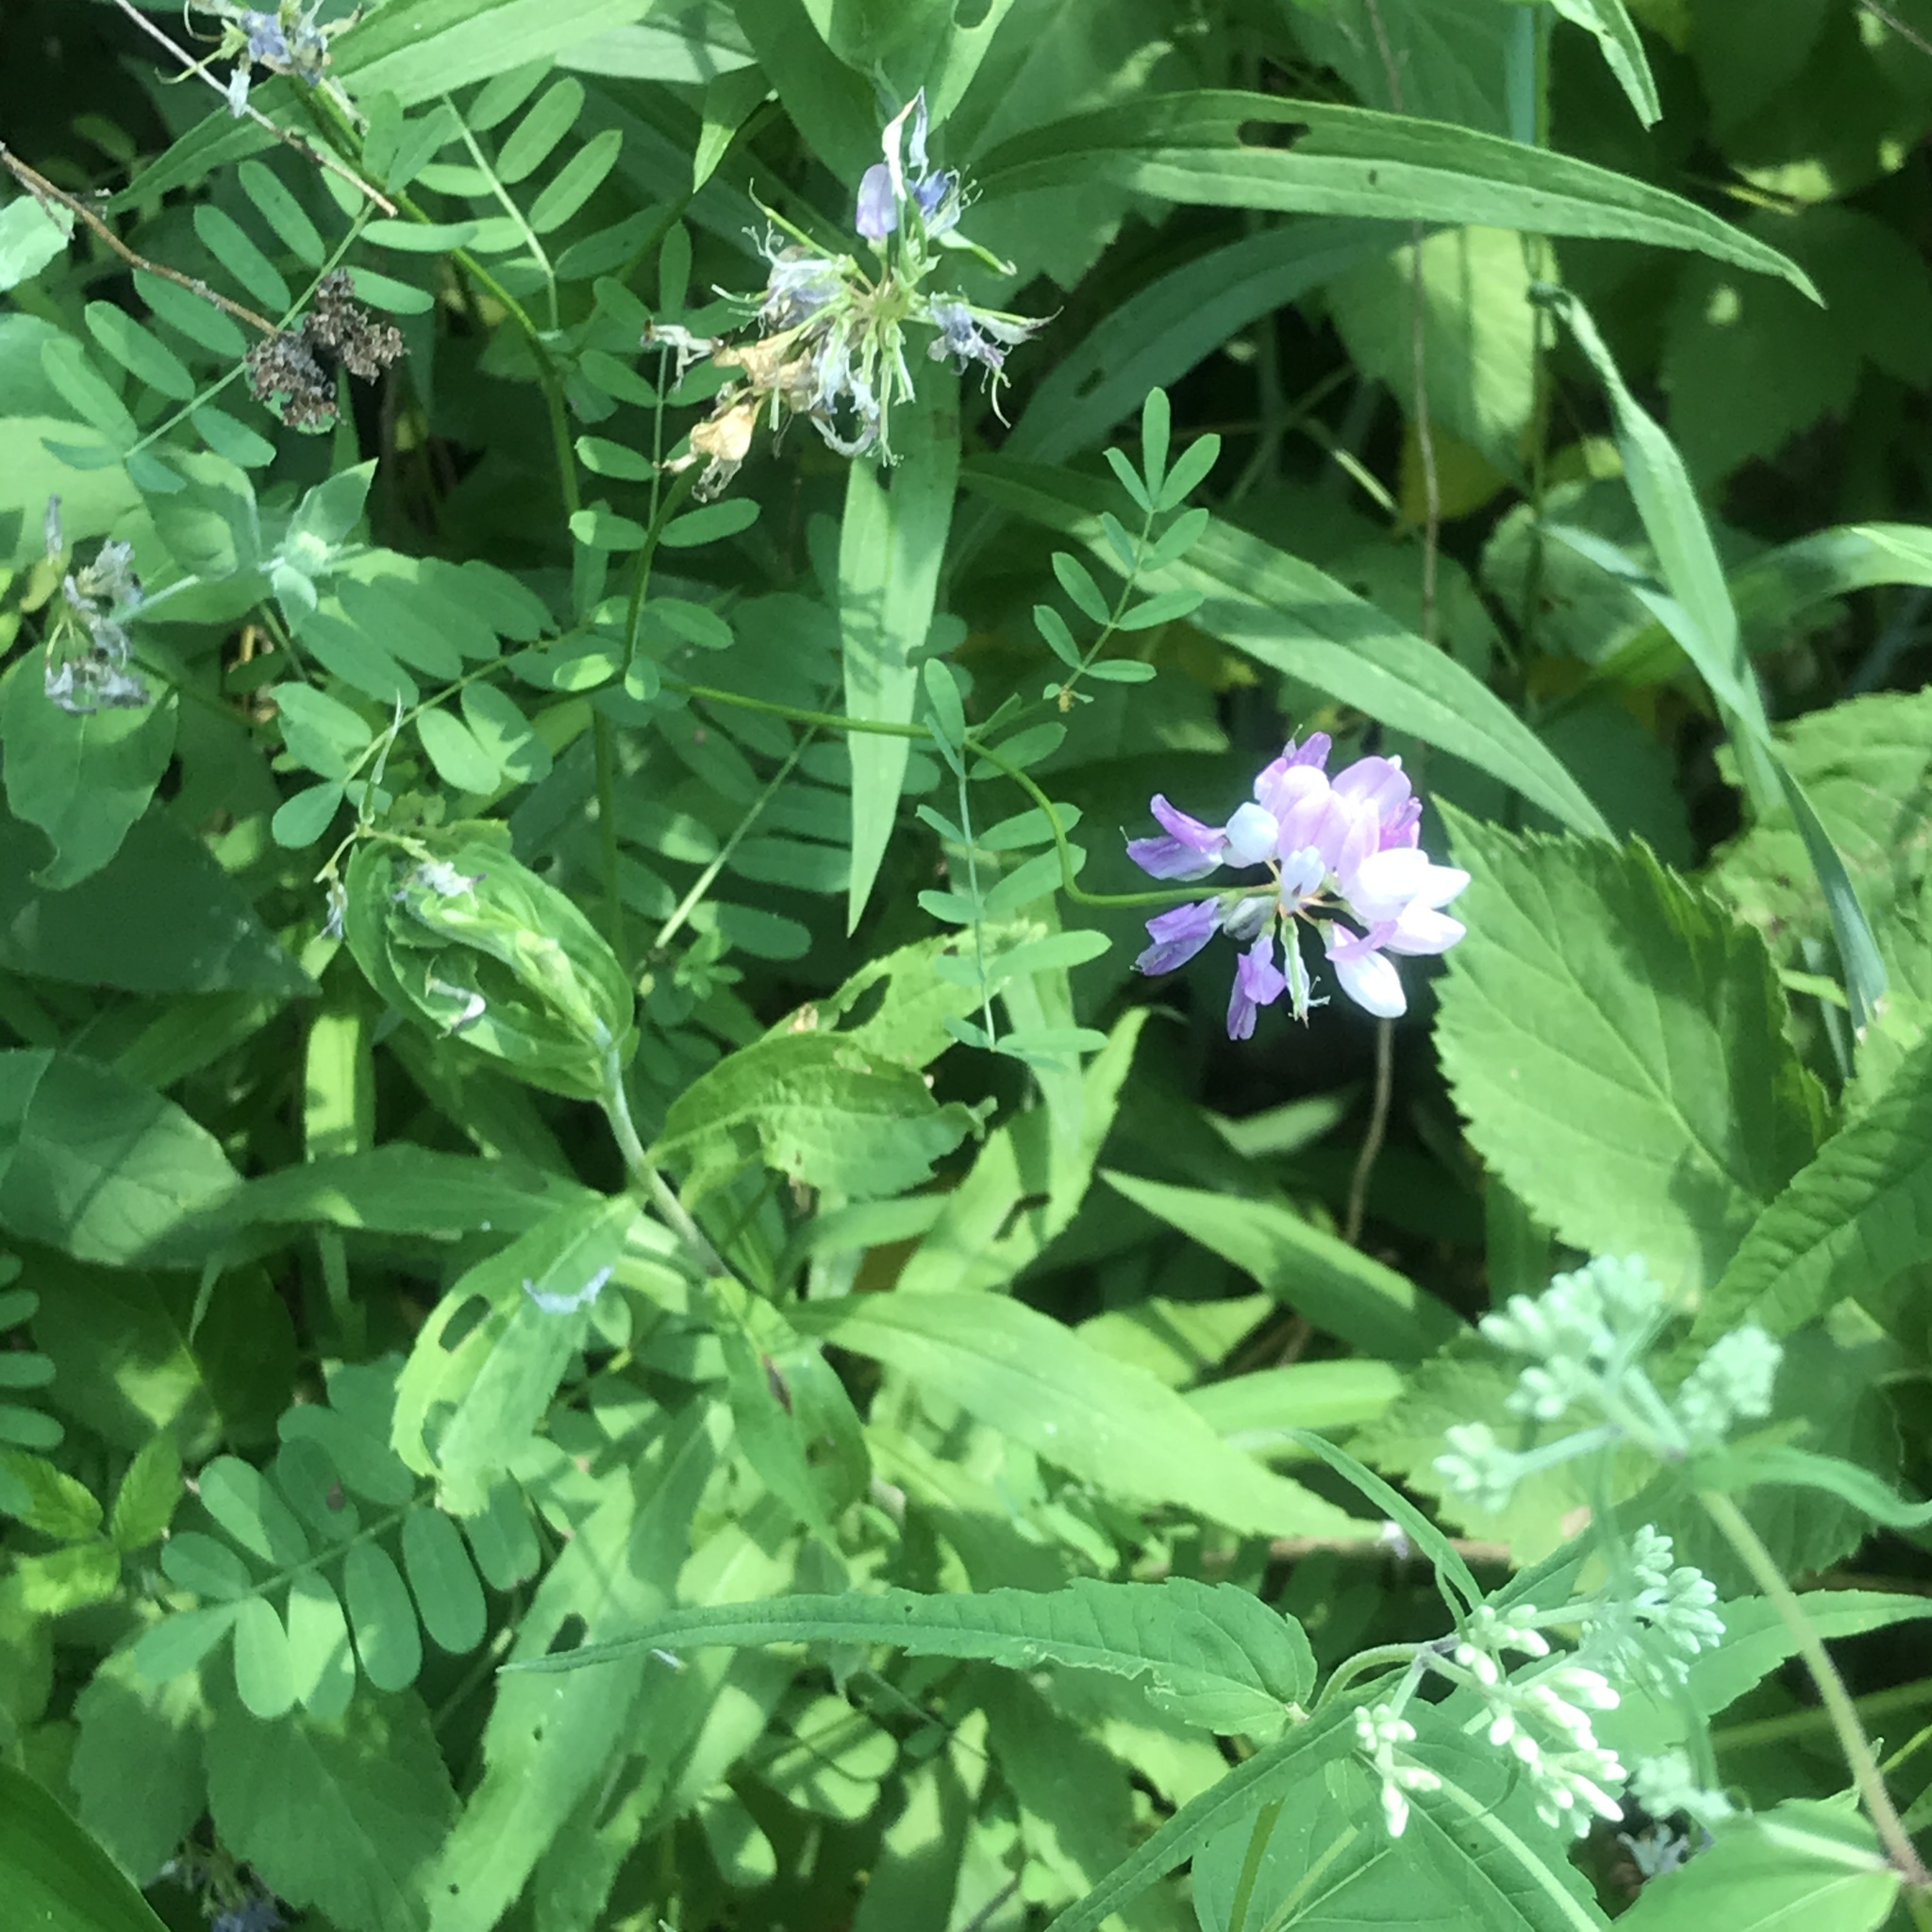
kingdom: Plantae
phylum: Tracheophyta
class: Magnoliopsida
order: Fabales
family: Fabaceae
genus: Coronilla
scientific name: Coronilla varia
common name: Crownvetch
